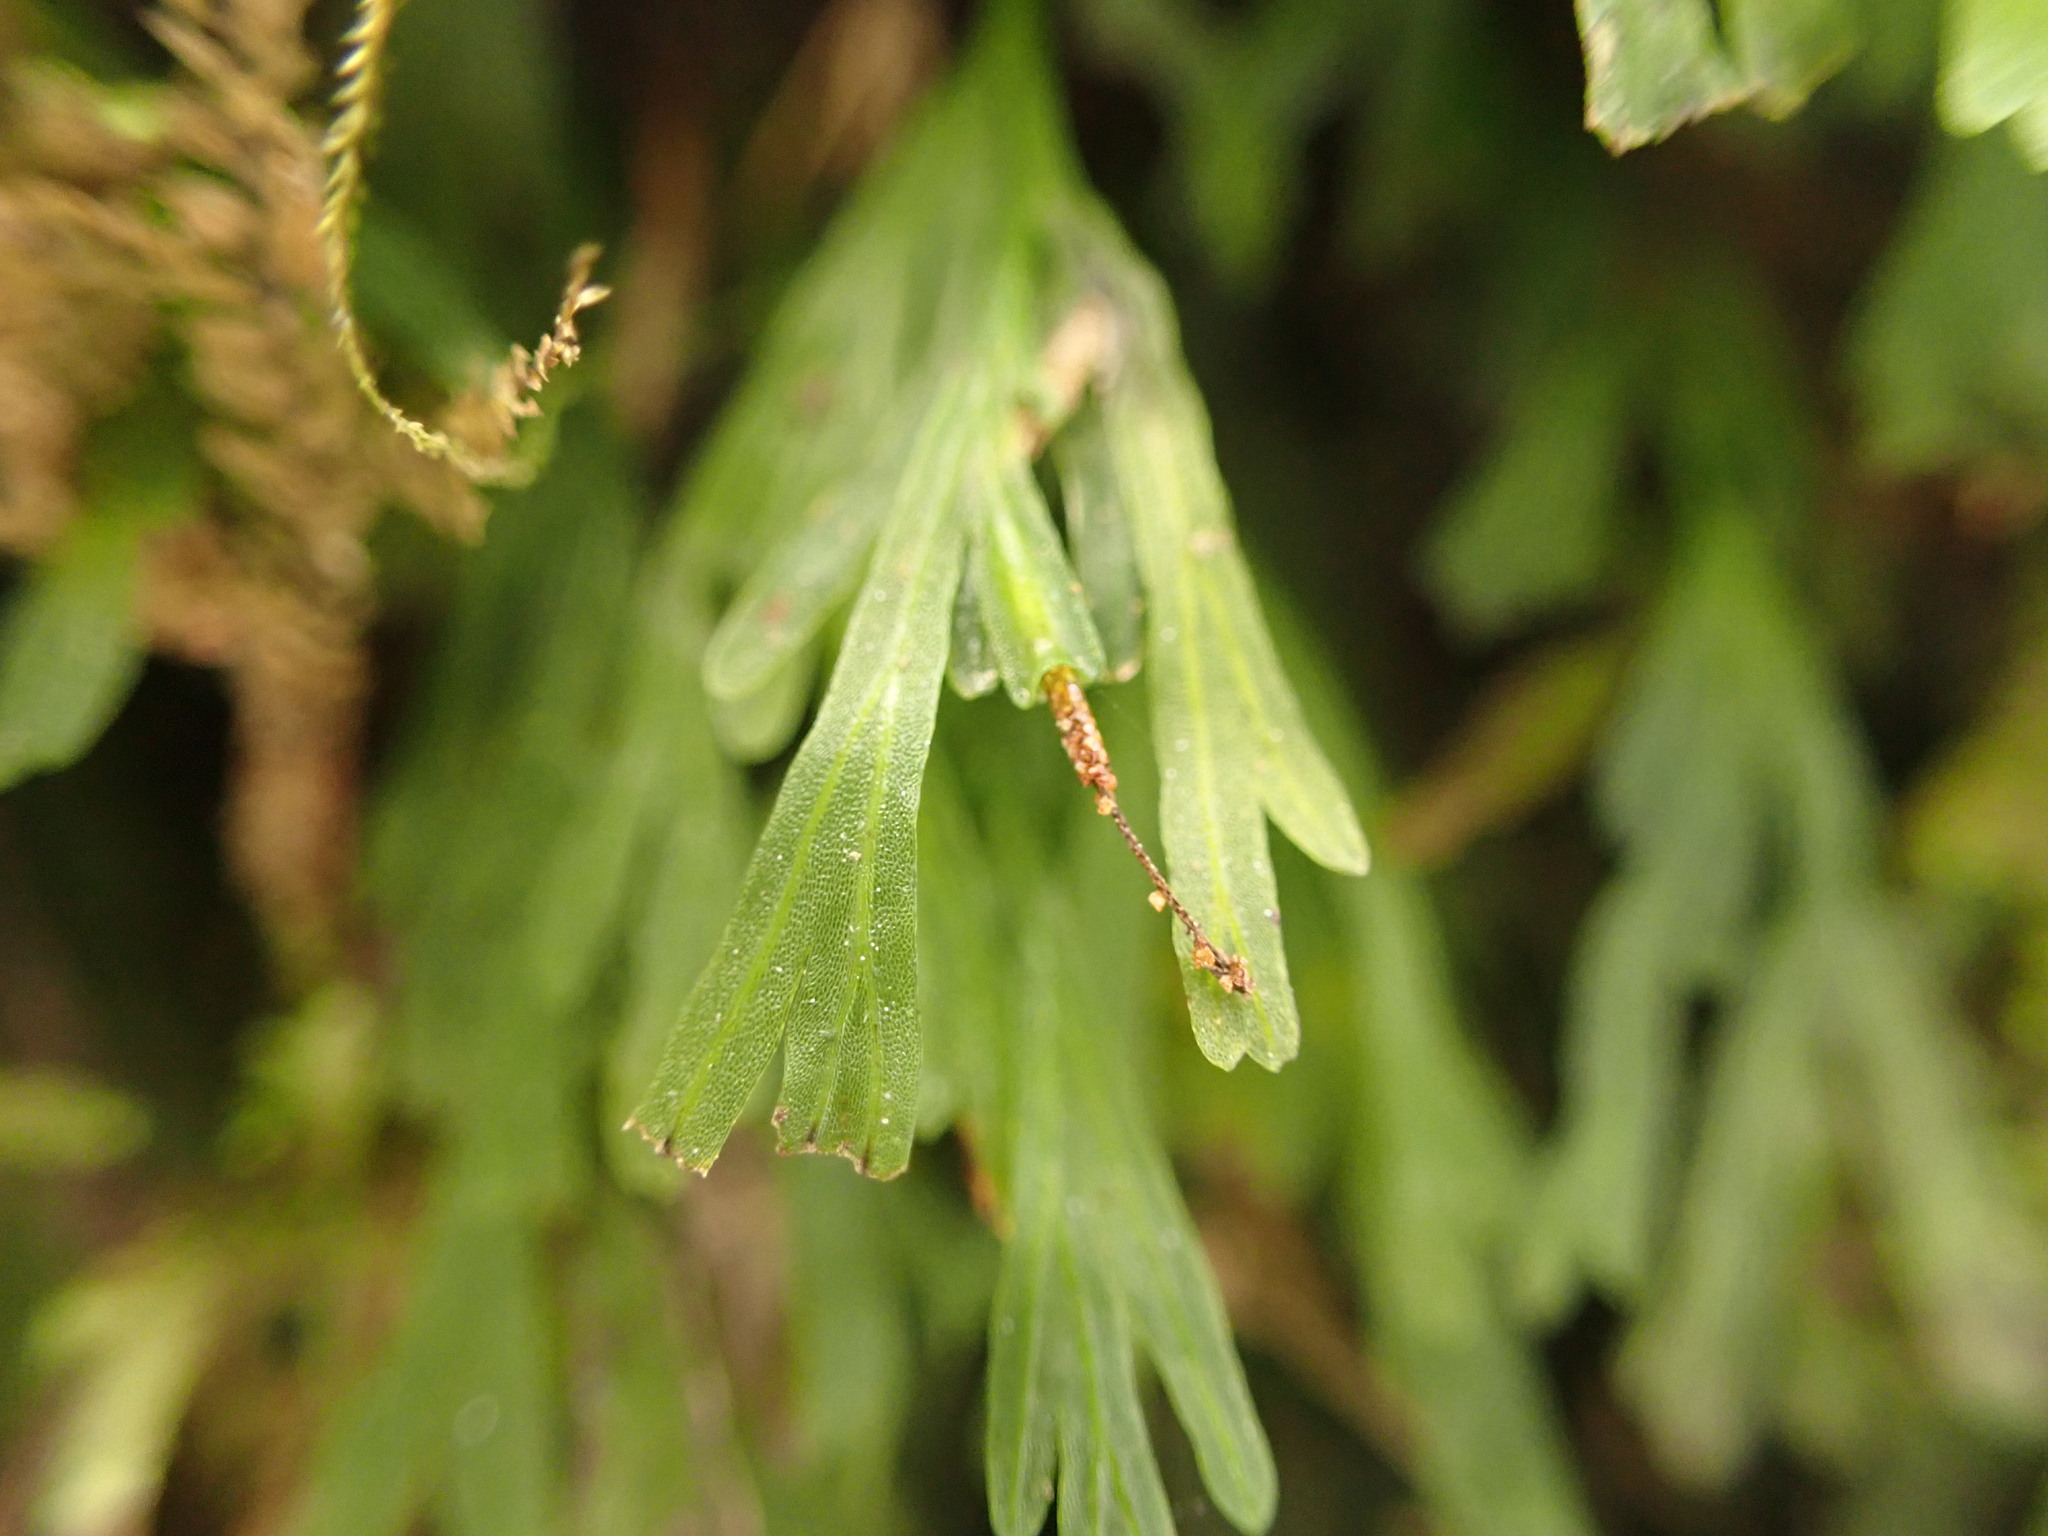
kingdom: Plantae
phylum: Tracheophyta
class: Polypodiopsida
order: Hymenophyllales
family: Hymenophyllaceae
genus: Polyphlebium
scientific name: Polyphlebium endlicherianum
